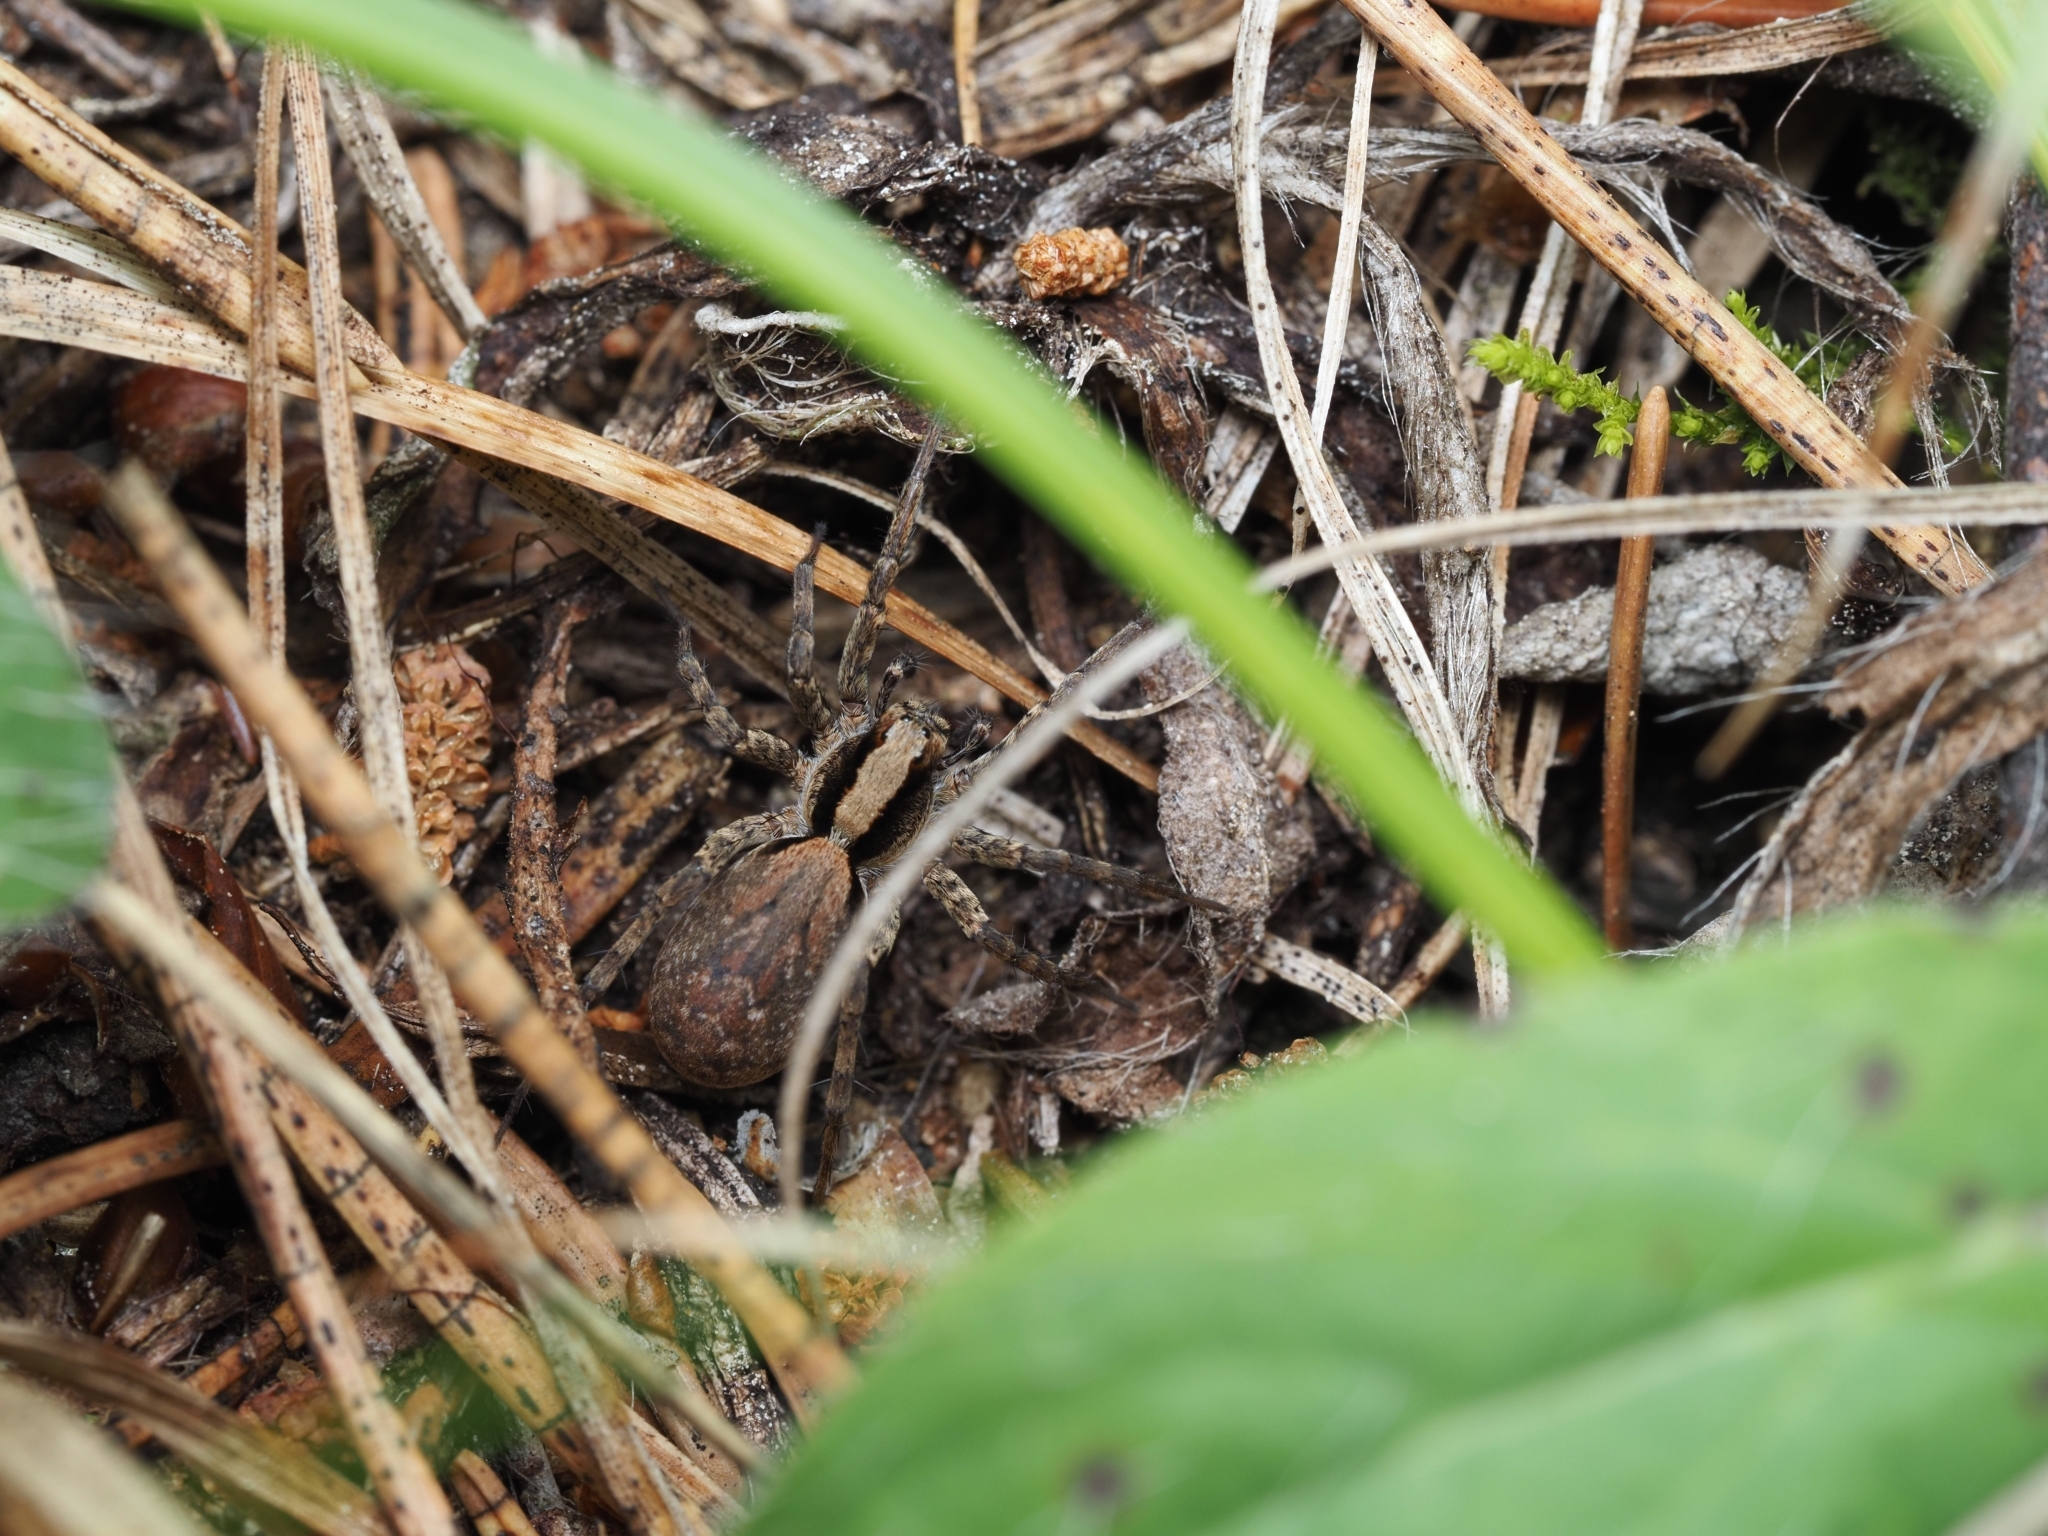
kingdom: Animalia
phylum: Arthropoda
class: Arachnida
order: Araneae
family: Lycosidae
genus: Xerolycosa
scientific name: Xerolycosa nemoralis
